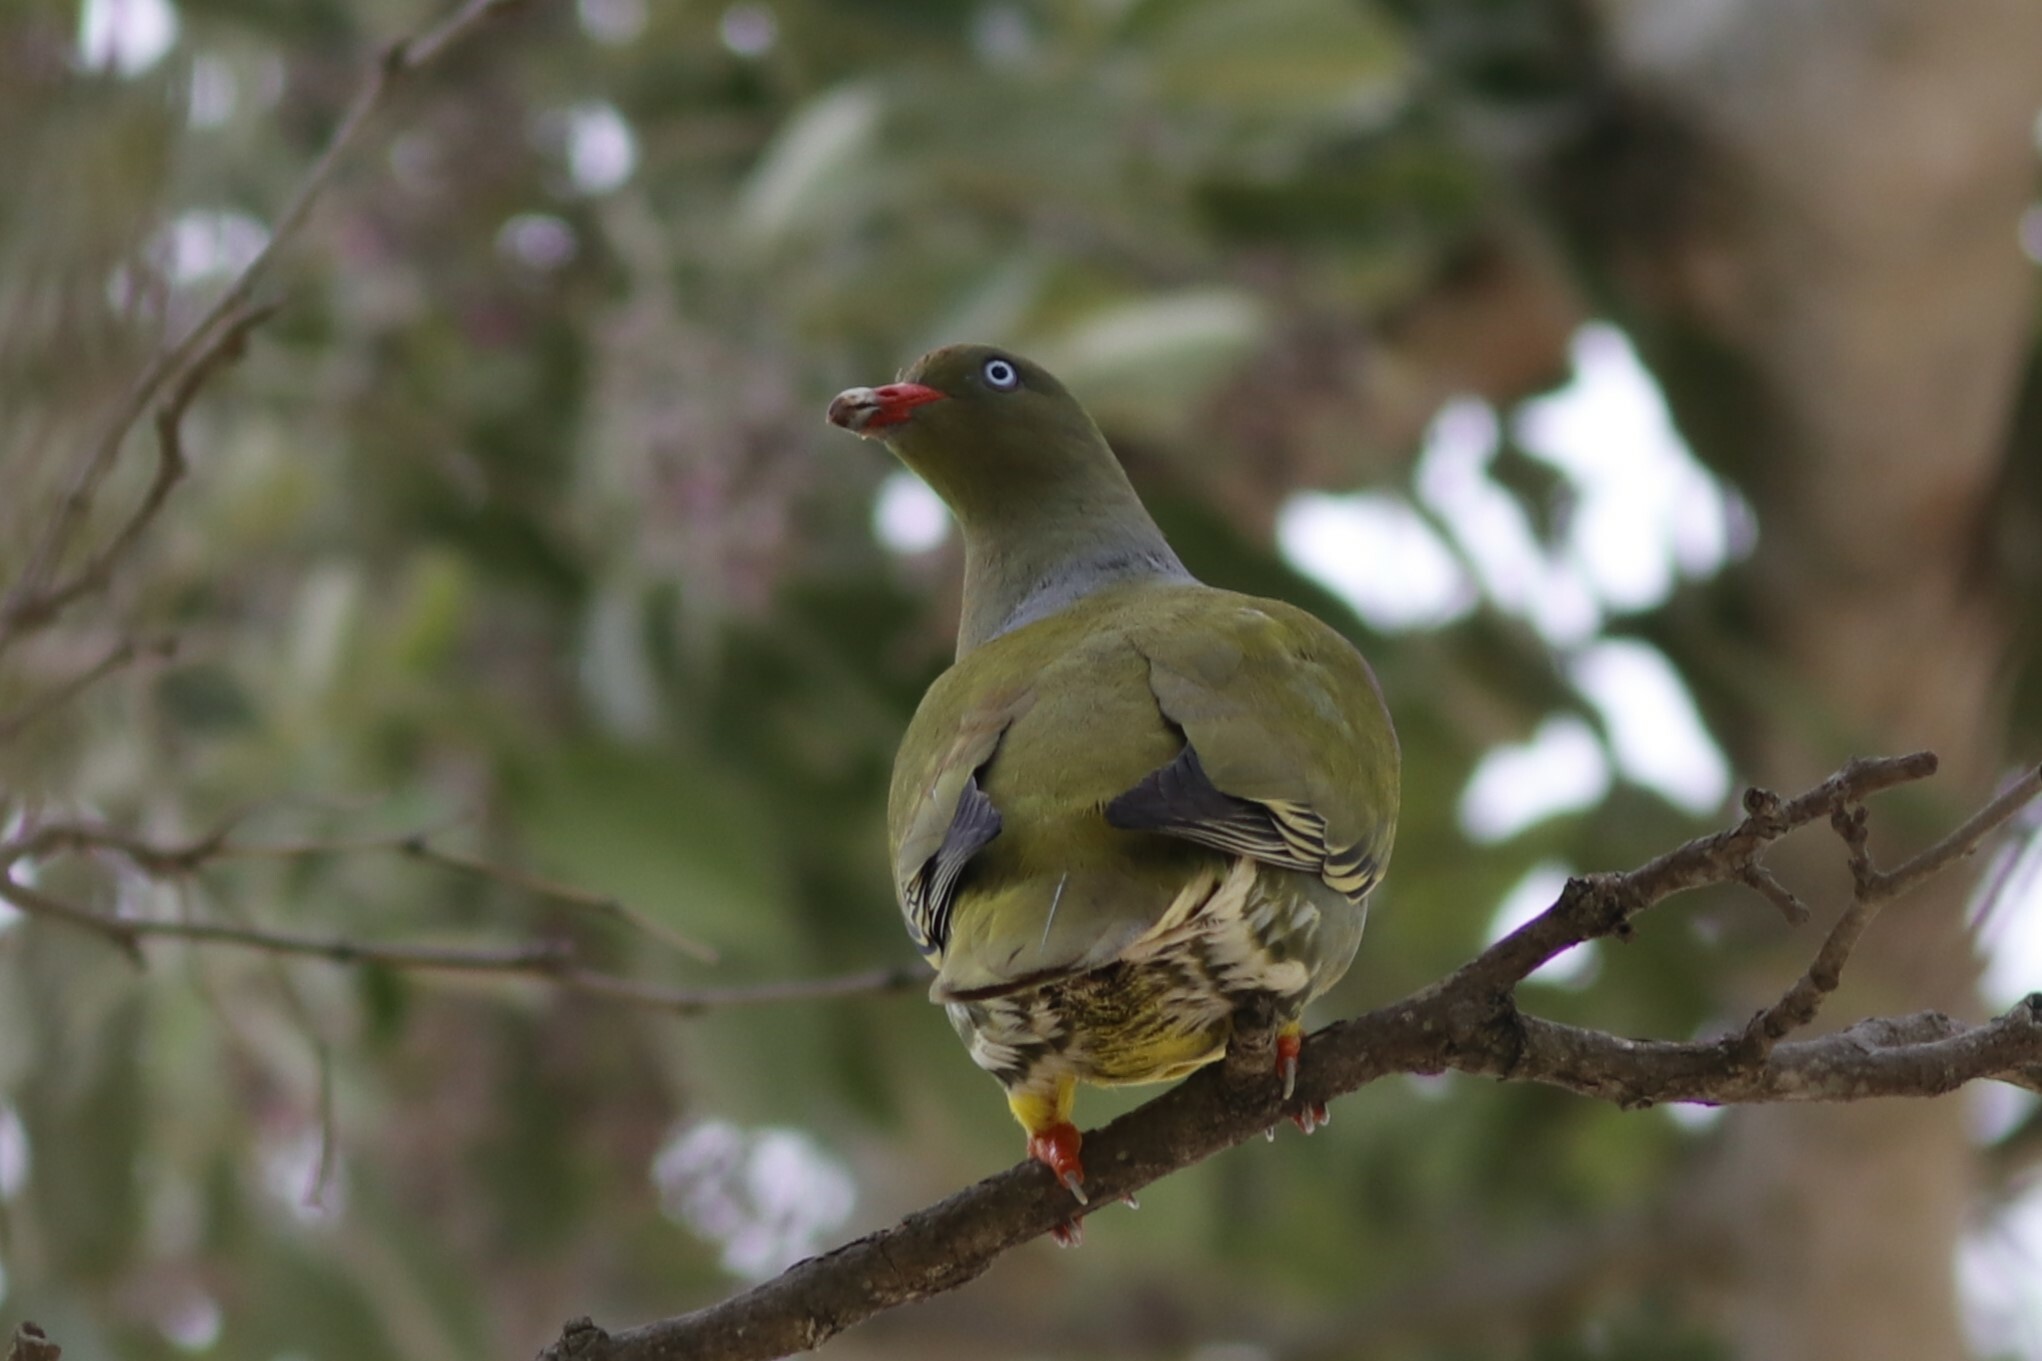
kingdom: Animalia
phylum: Chordata
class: Aves
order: Columbiformes
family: Columbidae
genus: Treron
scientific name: Treron calvus
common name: African green pigeon
